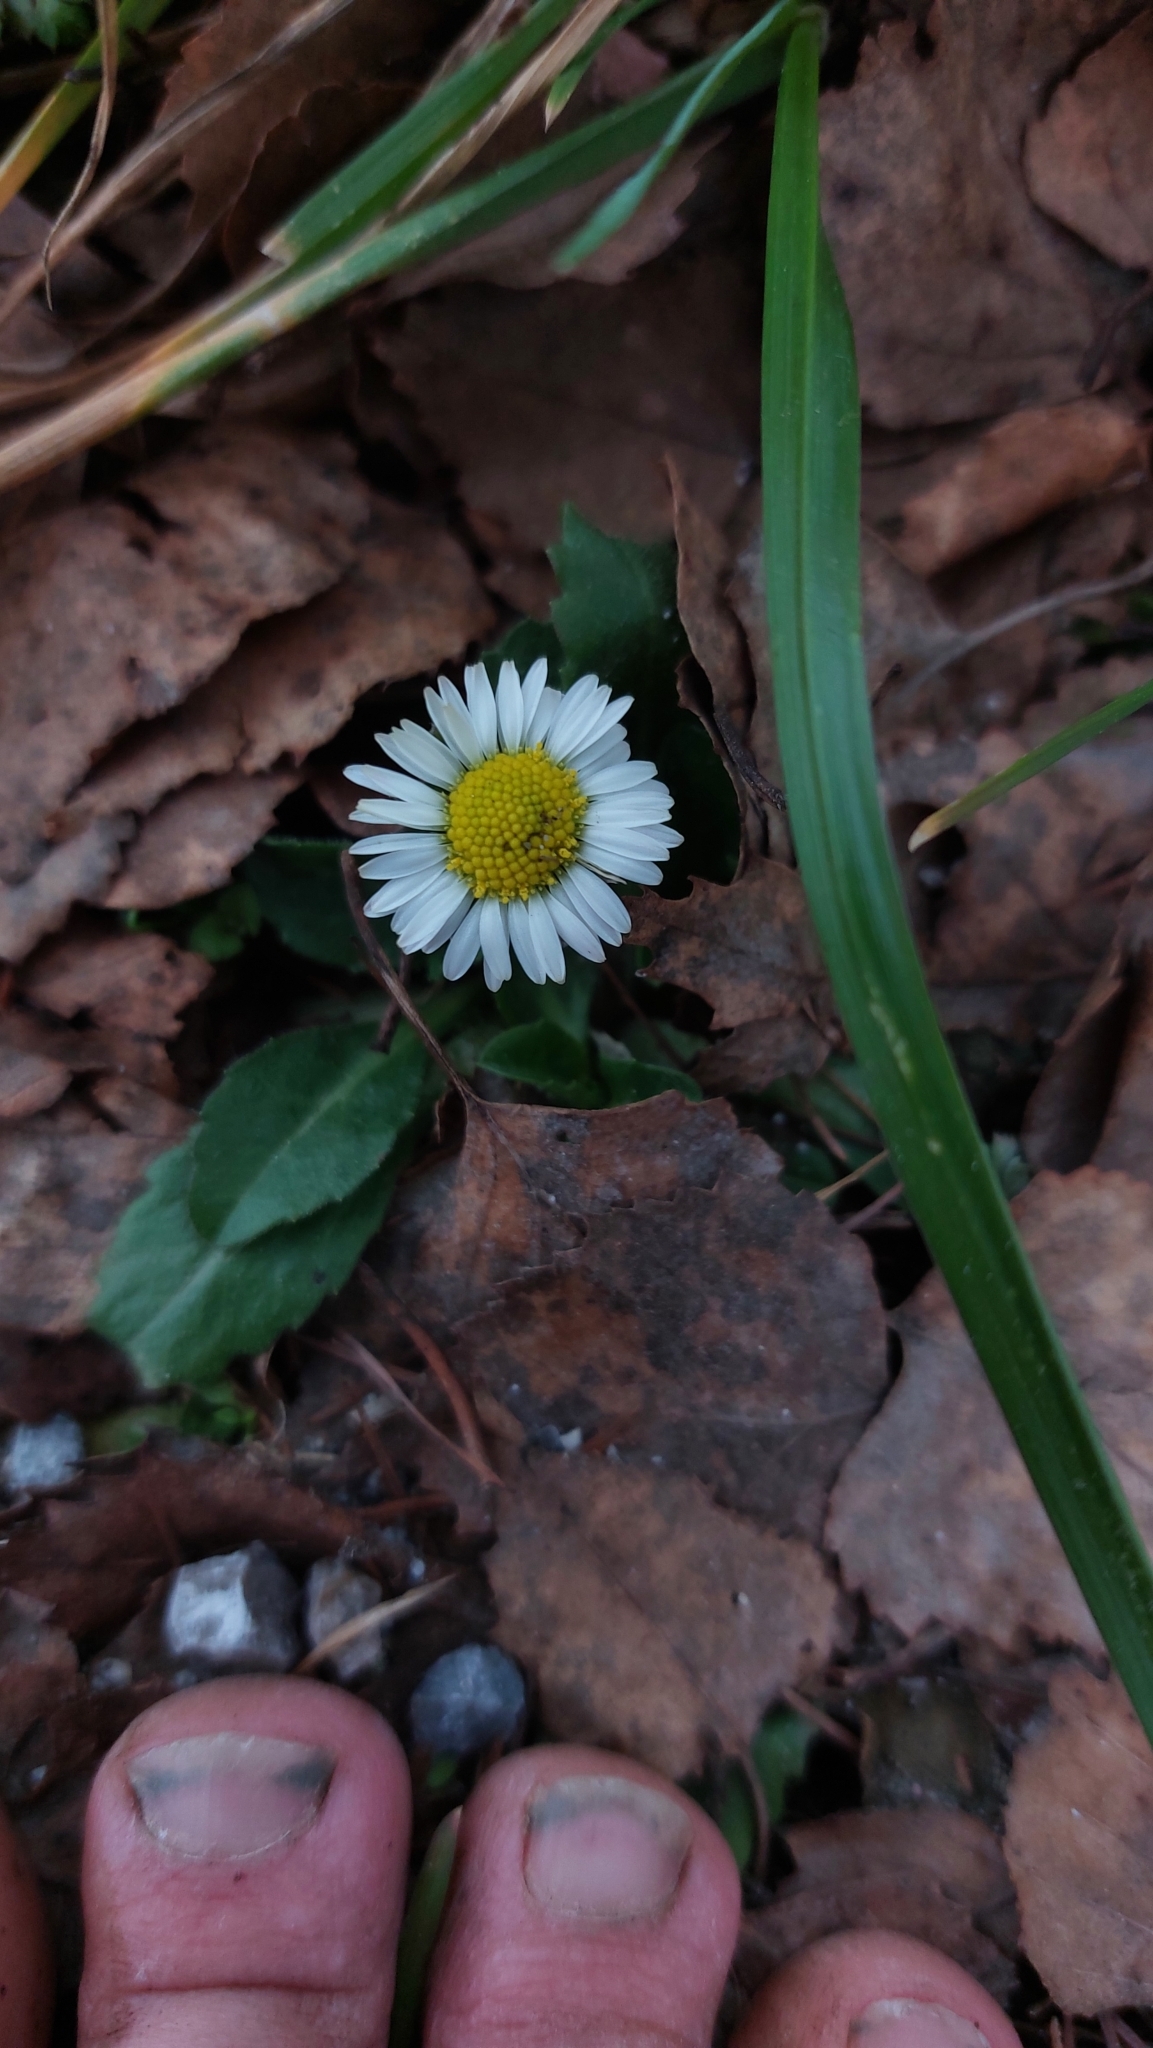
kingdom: Plantae
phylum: Tracheophyta
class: Magnoliopsida
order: Asterales
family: Asteraceae
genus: Bellis
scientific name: Bellis perennis
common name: Lawndaisy
